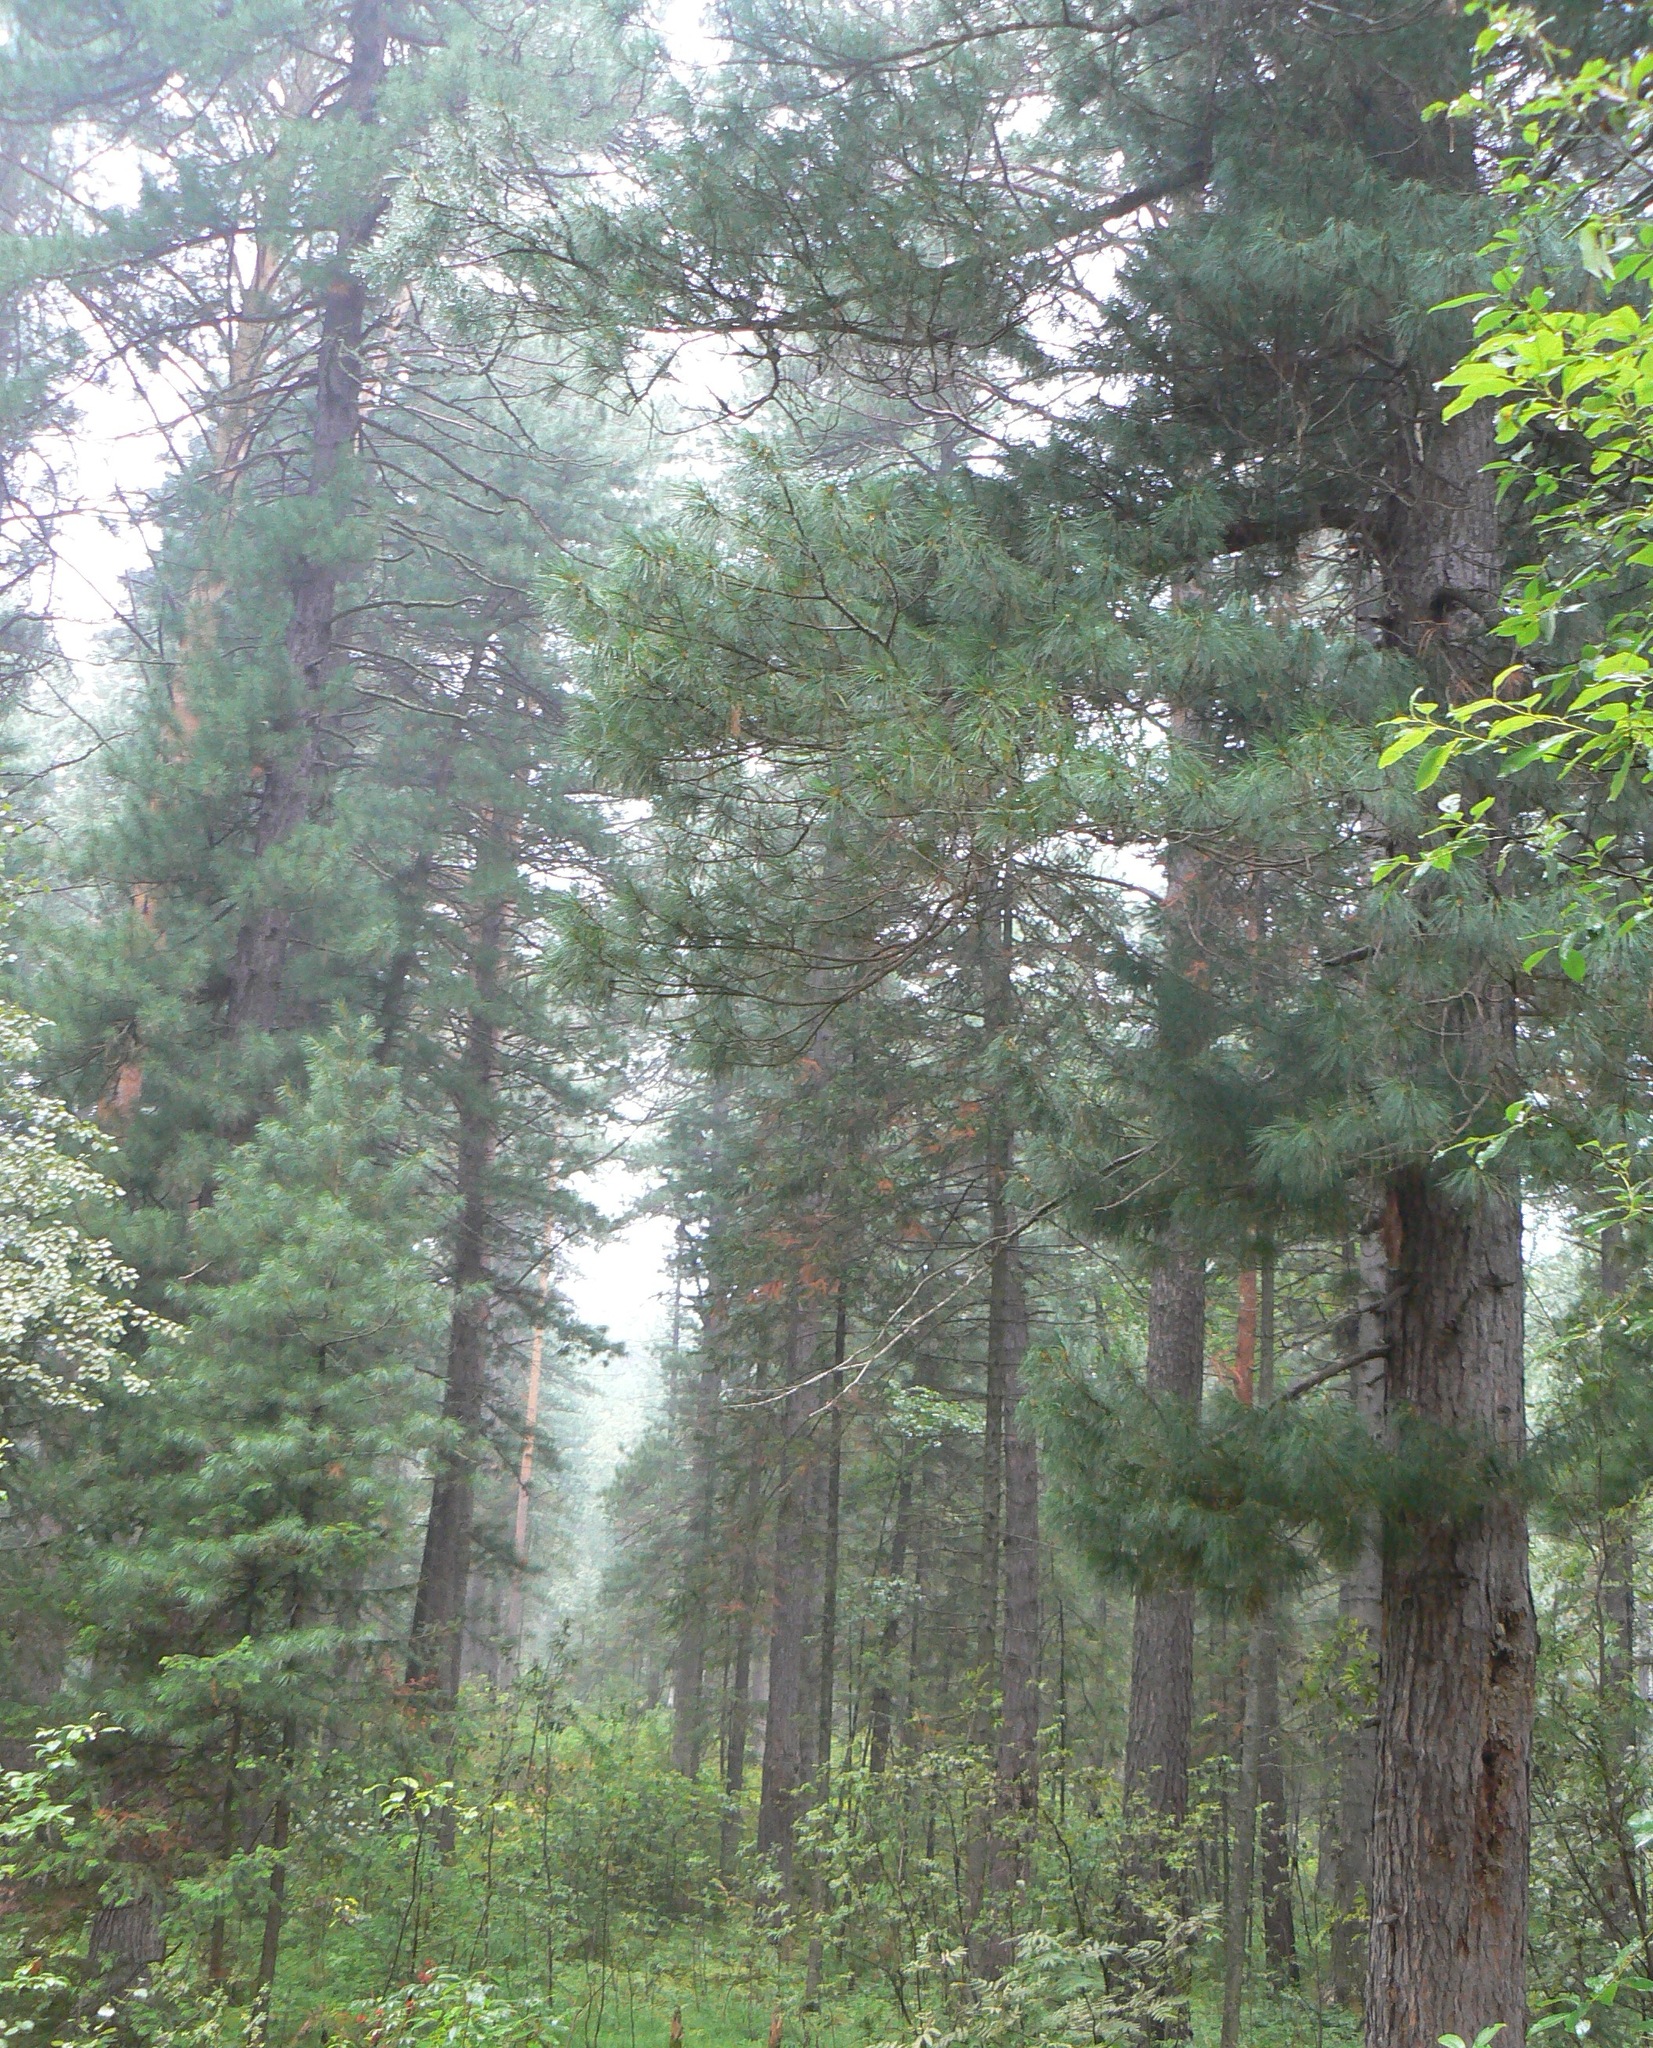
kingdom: Plantae
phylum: Tracheophyta
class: Pinopsida
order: Pinales
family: Pinaceae
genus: Pinus
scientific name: Pinus sibirica
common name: Siberian pine
